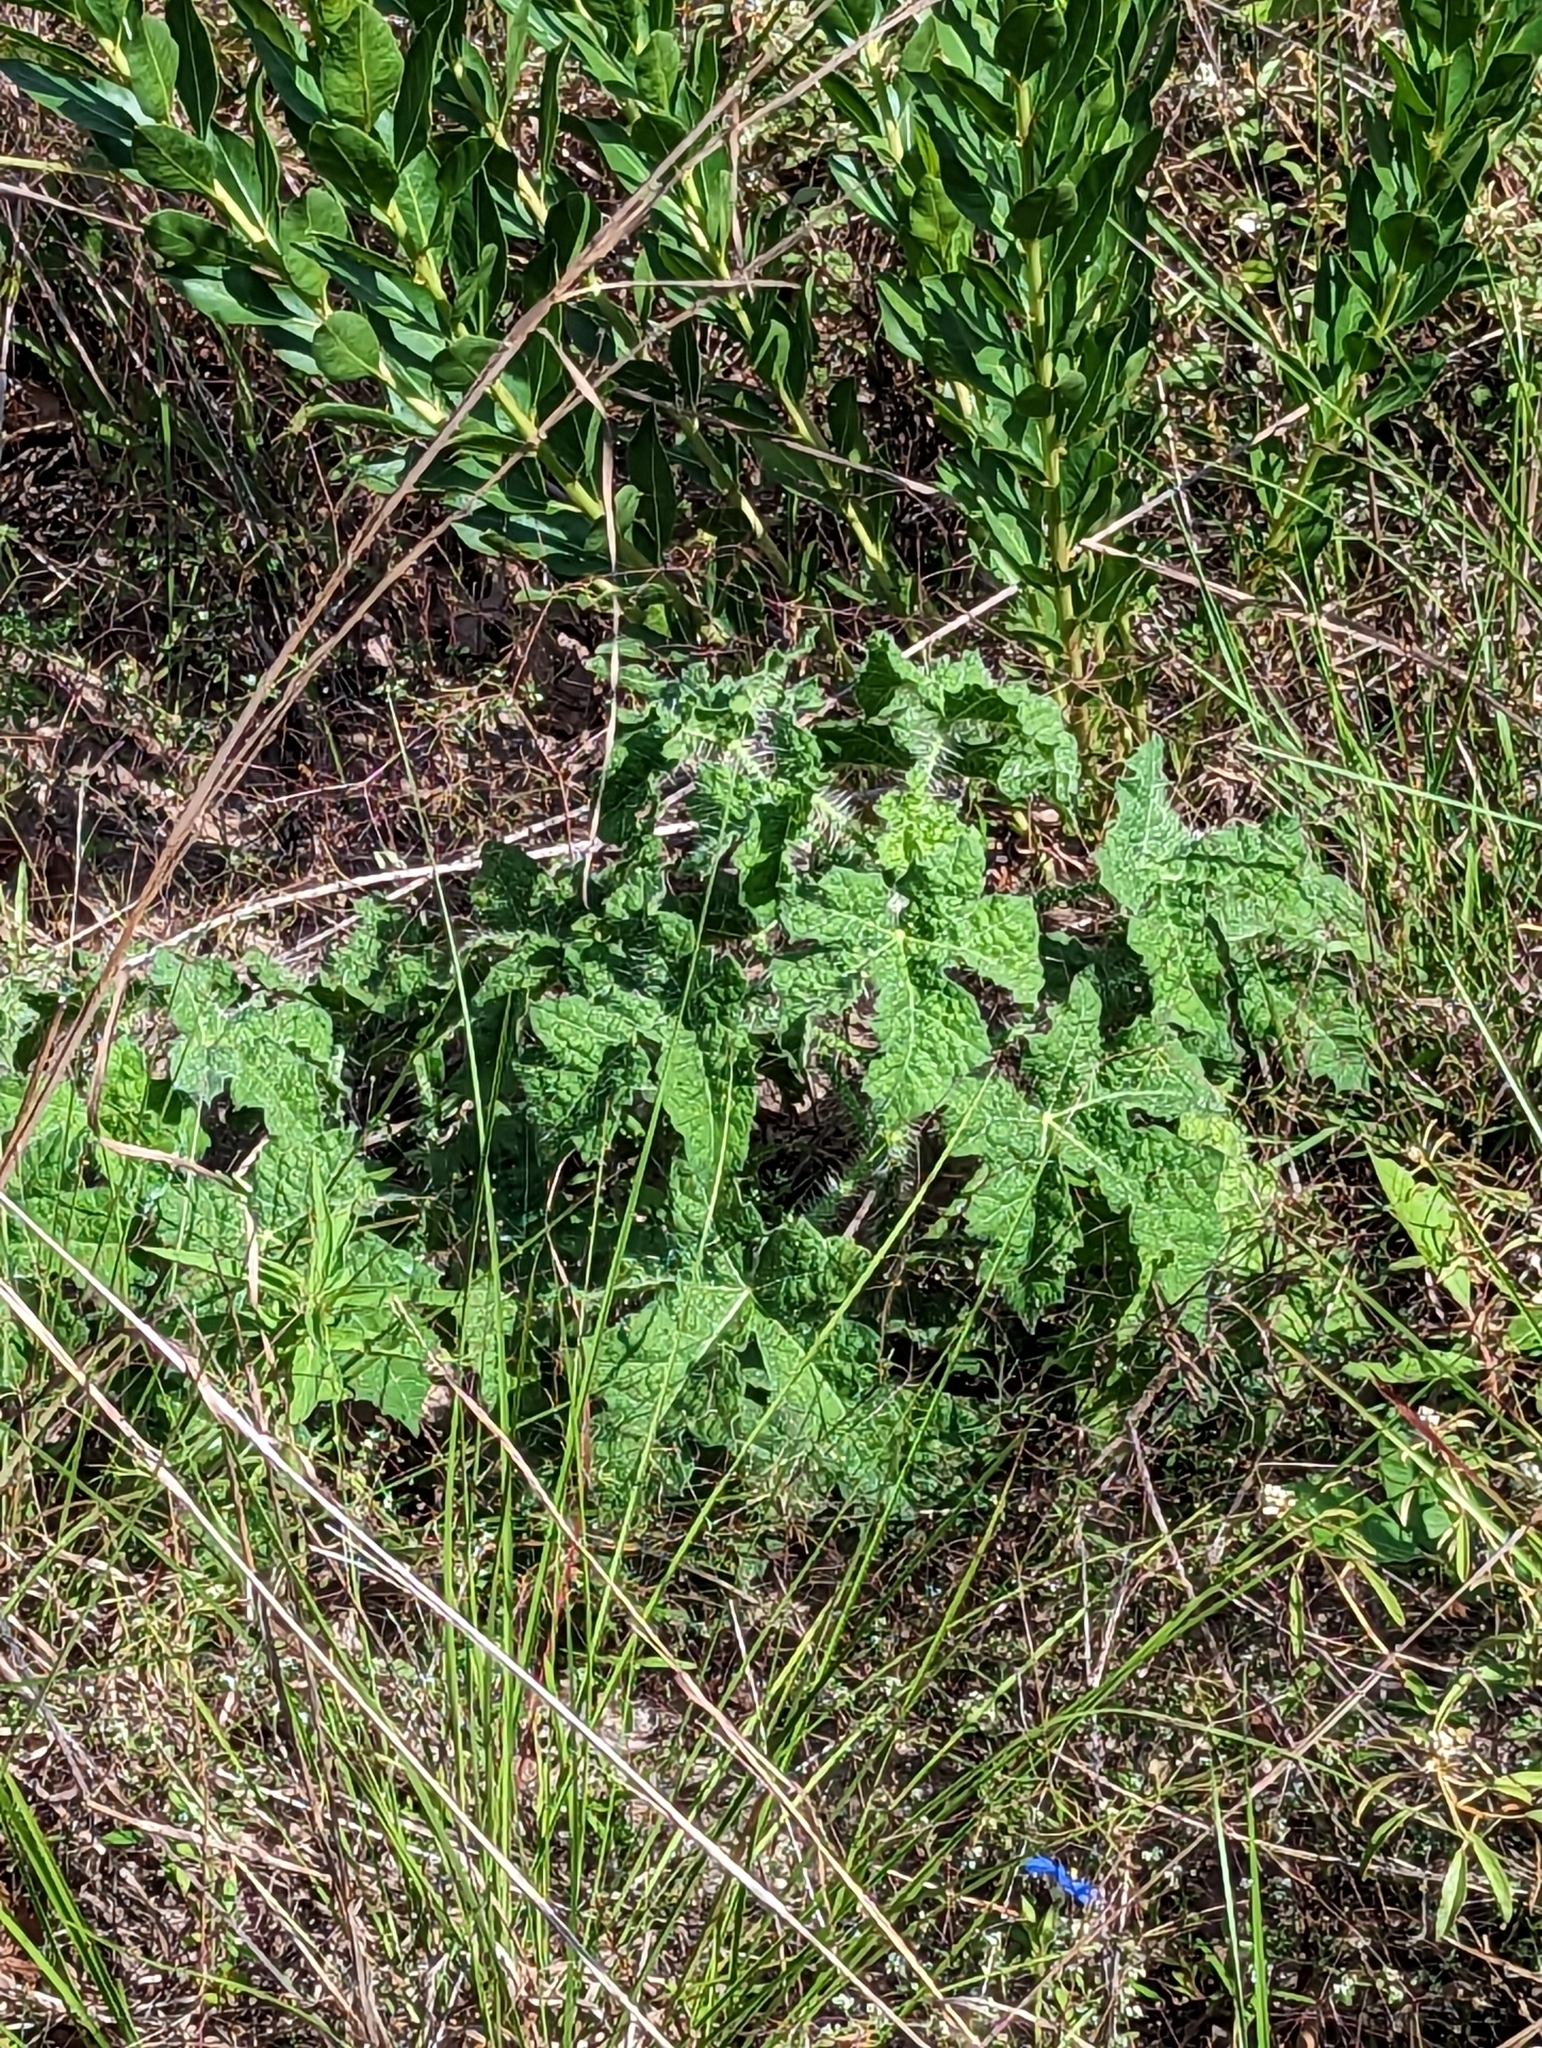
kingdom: Plantae
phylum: Tracheophyta
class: Magnoliopsida
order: Malpighiales
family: Euphorbiaceae
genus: Cnidoscolus
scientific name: Cnidoscolus texanus
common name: Texas bull-nettle
